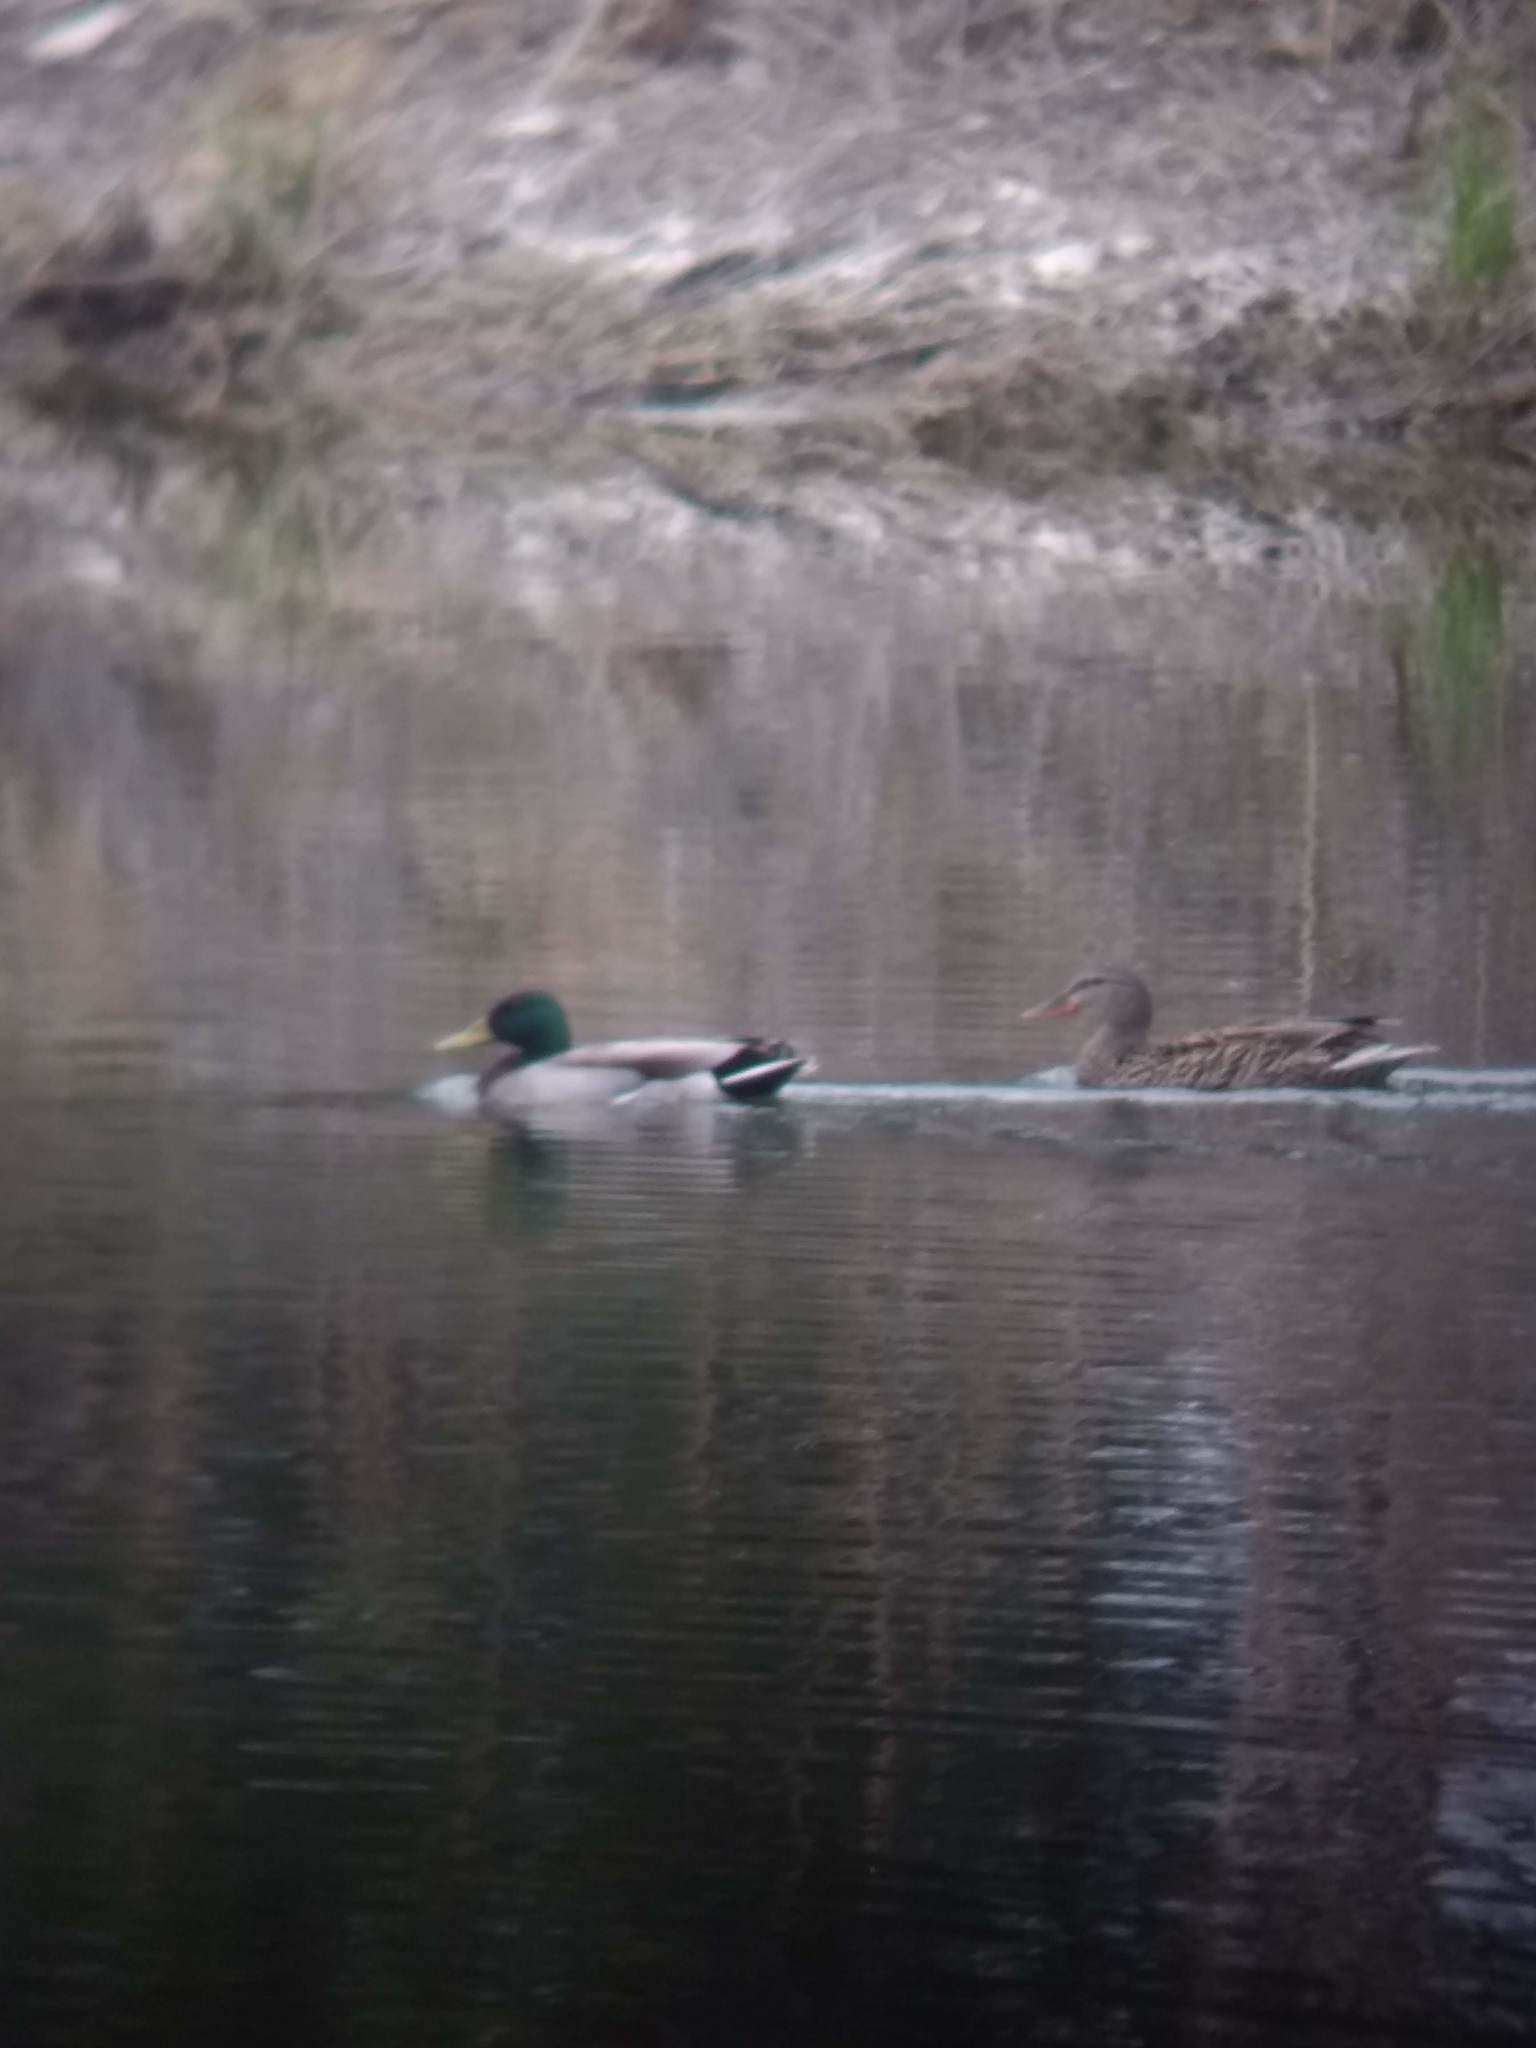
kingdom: Animalia
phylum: Chordata
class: Aves
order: Anseriformes
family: Anatidae
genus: Anas
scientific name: Anas platyrhynchos
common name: Mallard
